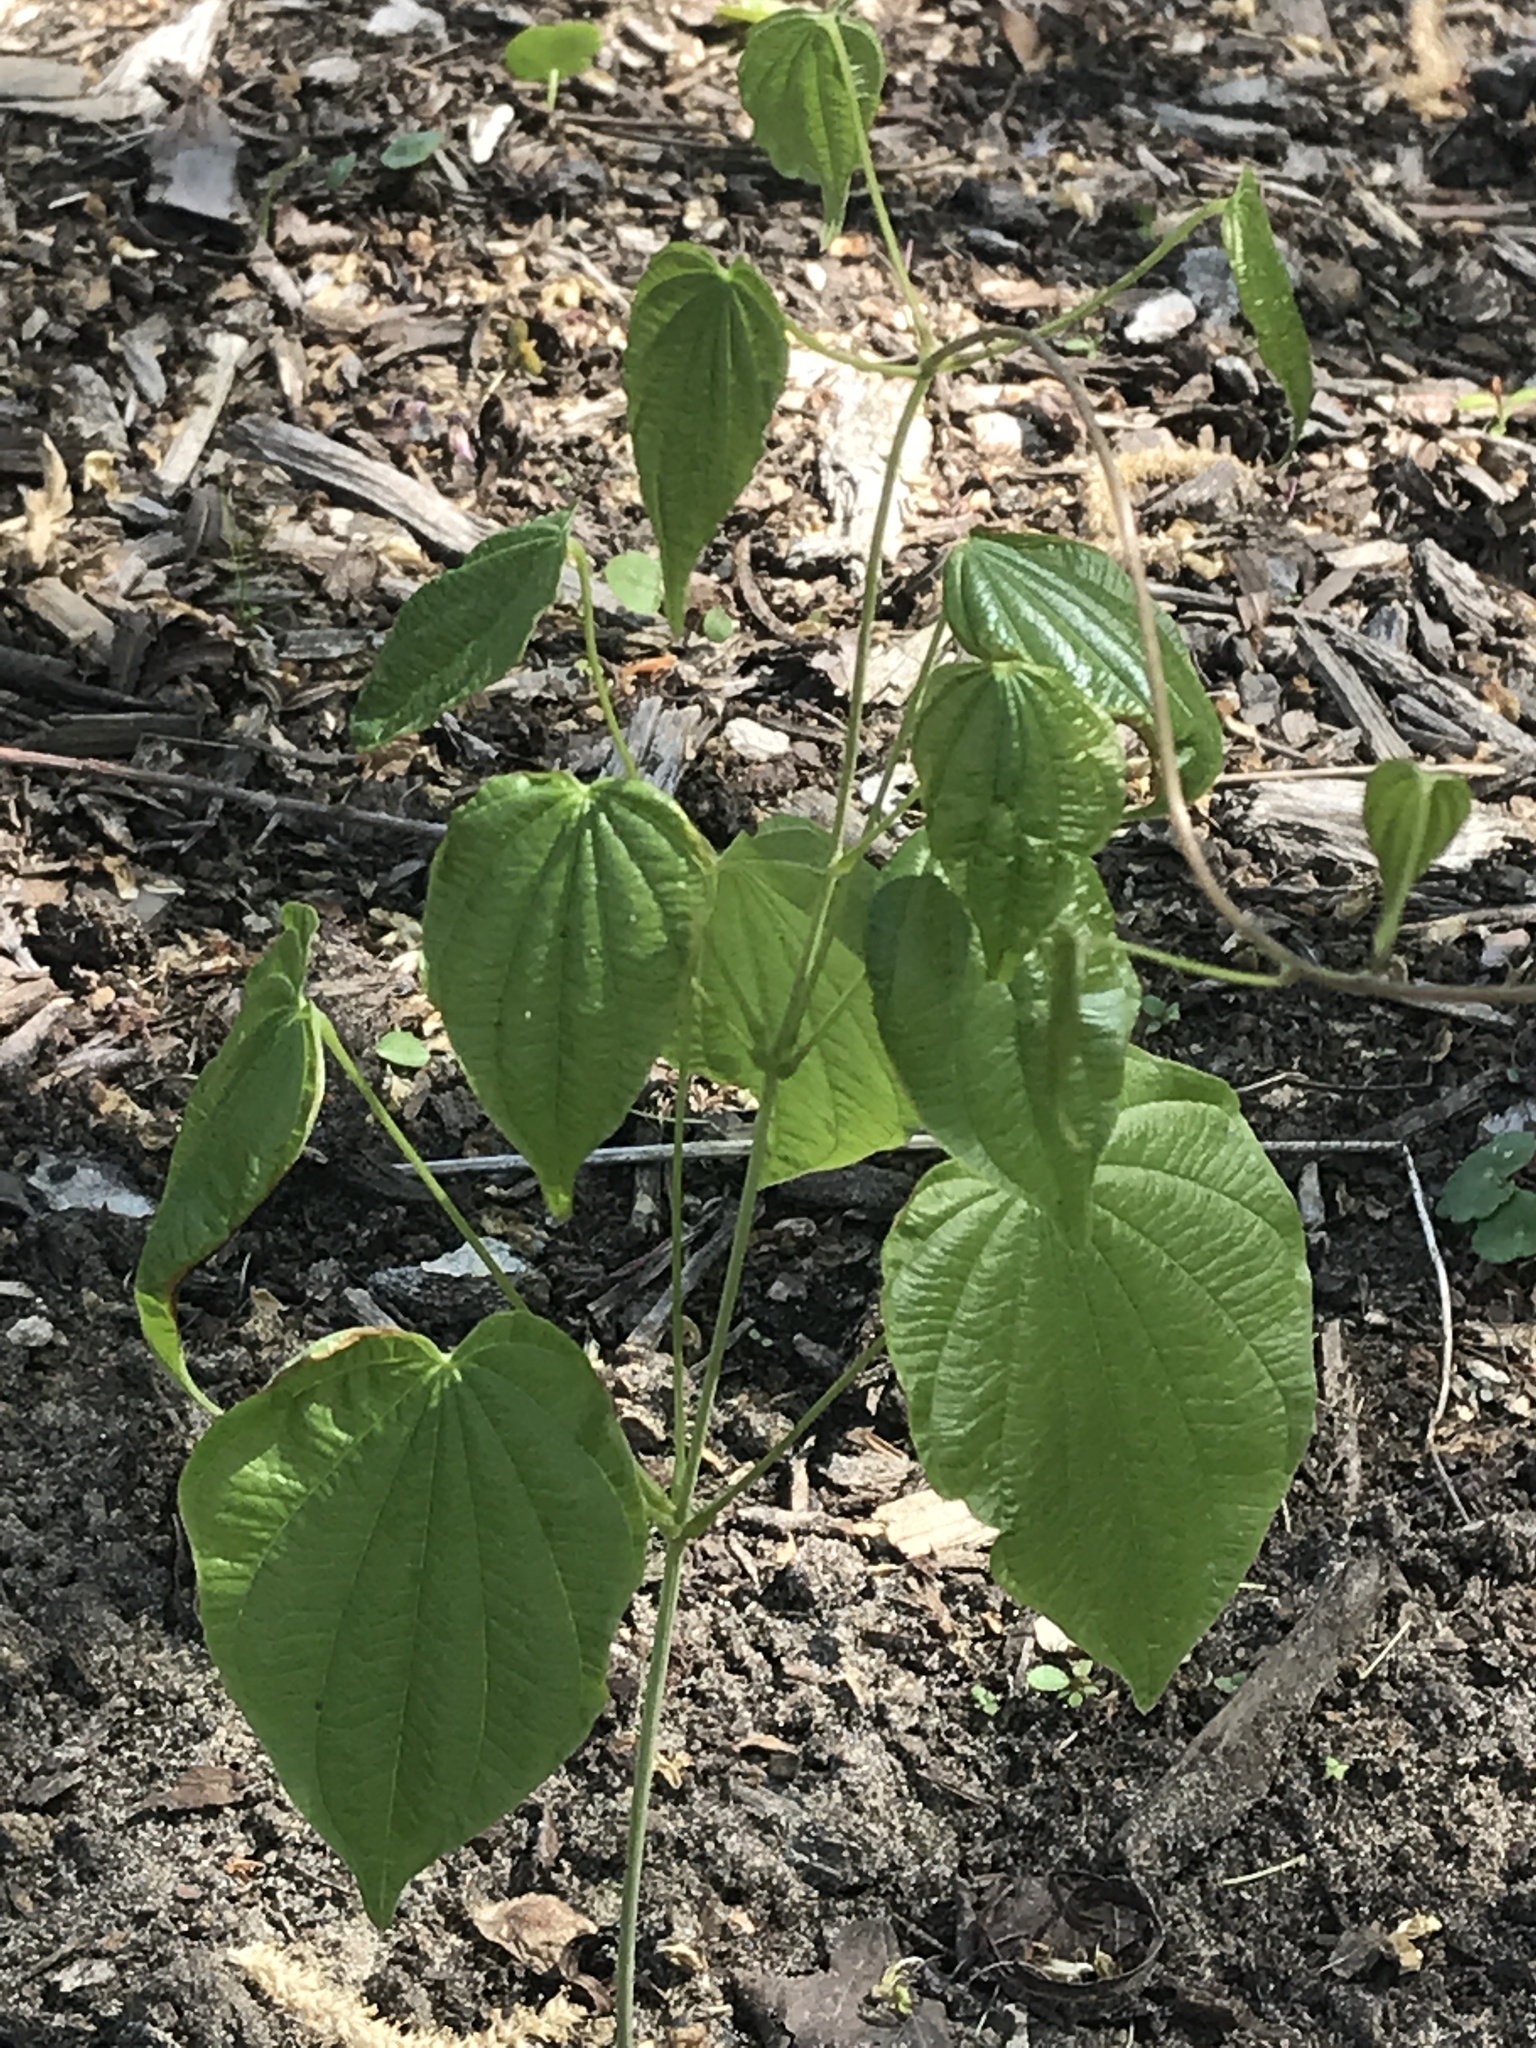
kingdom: Plantae
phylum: Tracheophyta
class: Liliopsida
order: Dioscoreales
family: Dioscoreaceae
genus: Dioscorea
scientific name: Dioscorea villosa
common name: Wild yam
